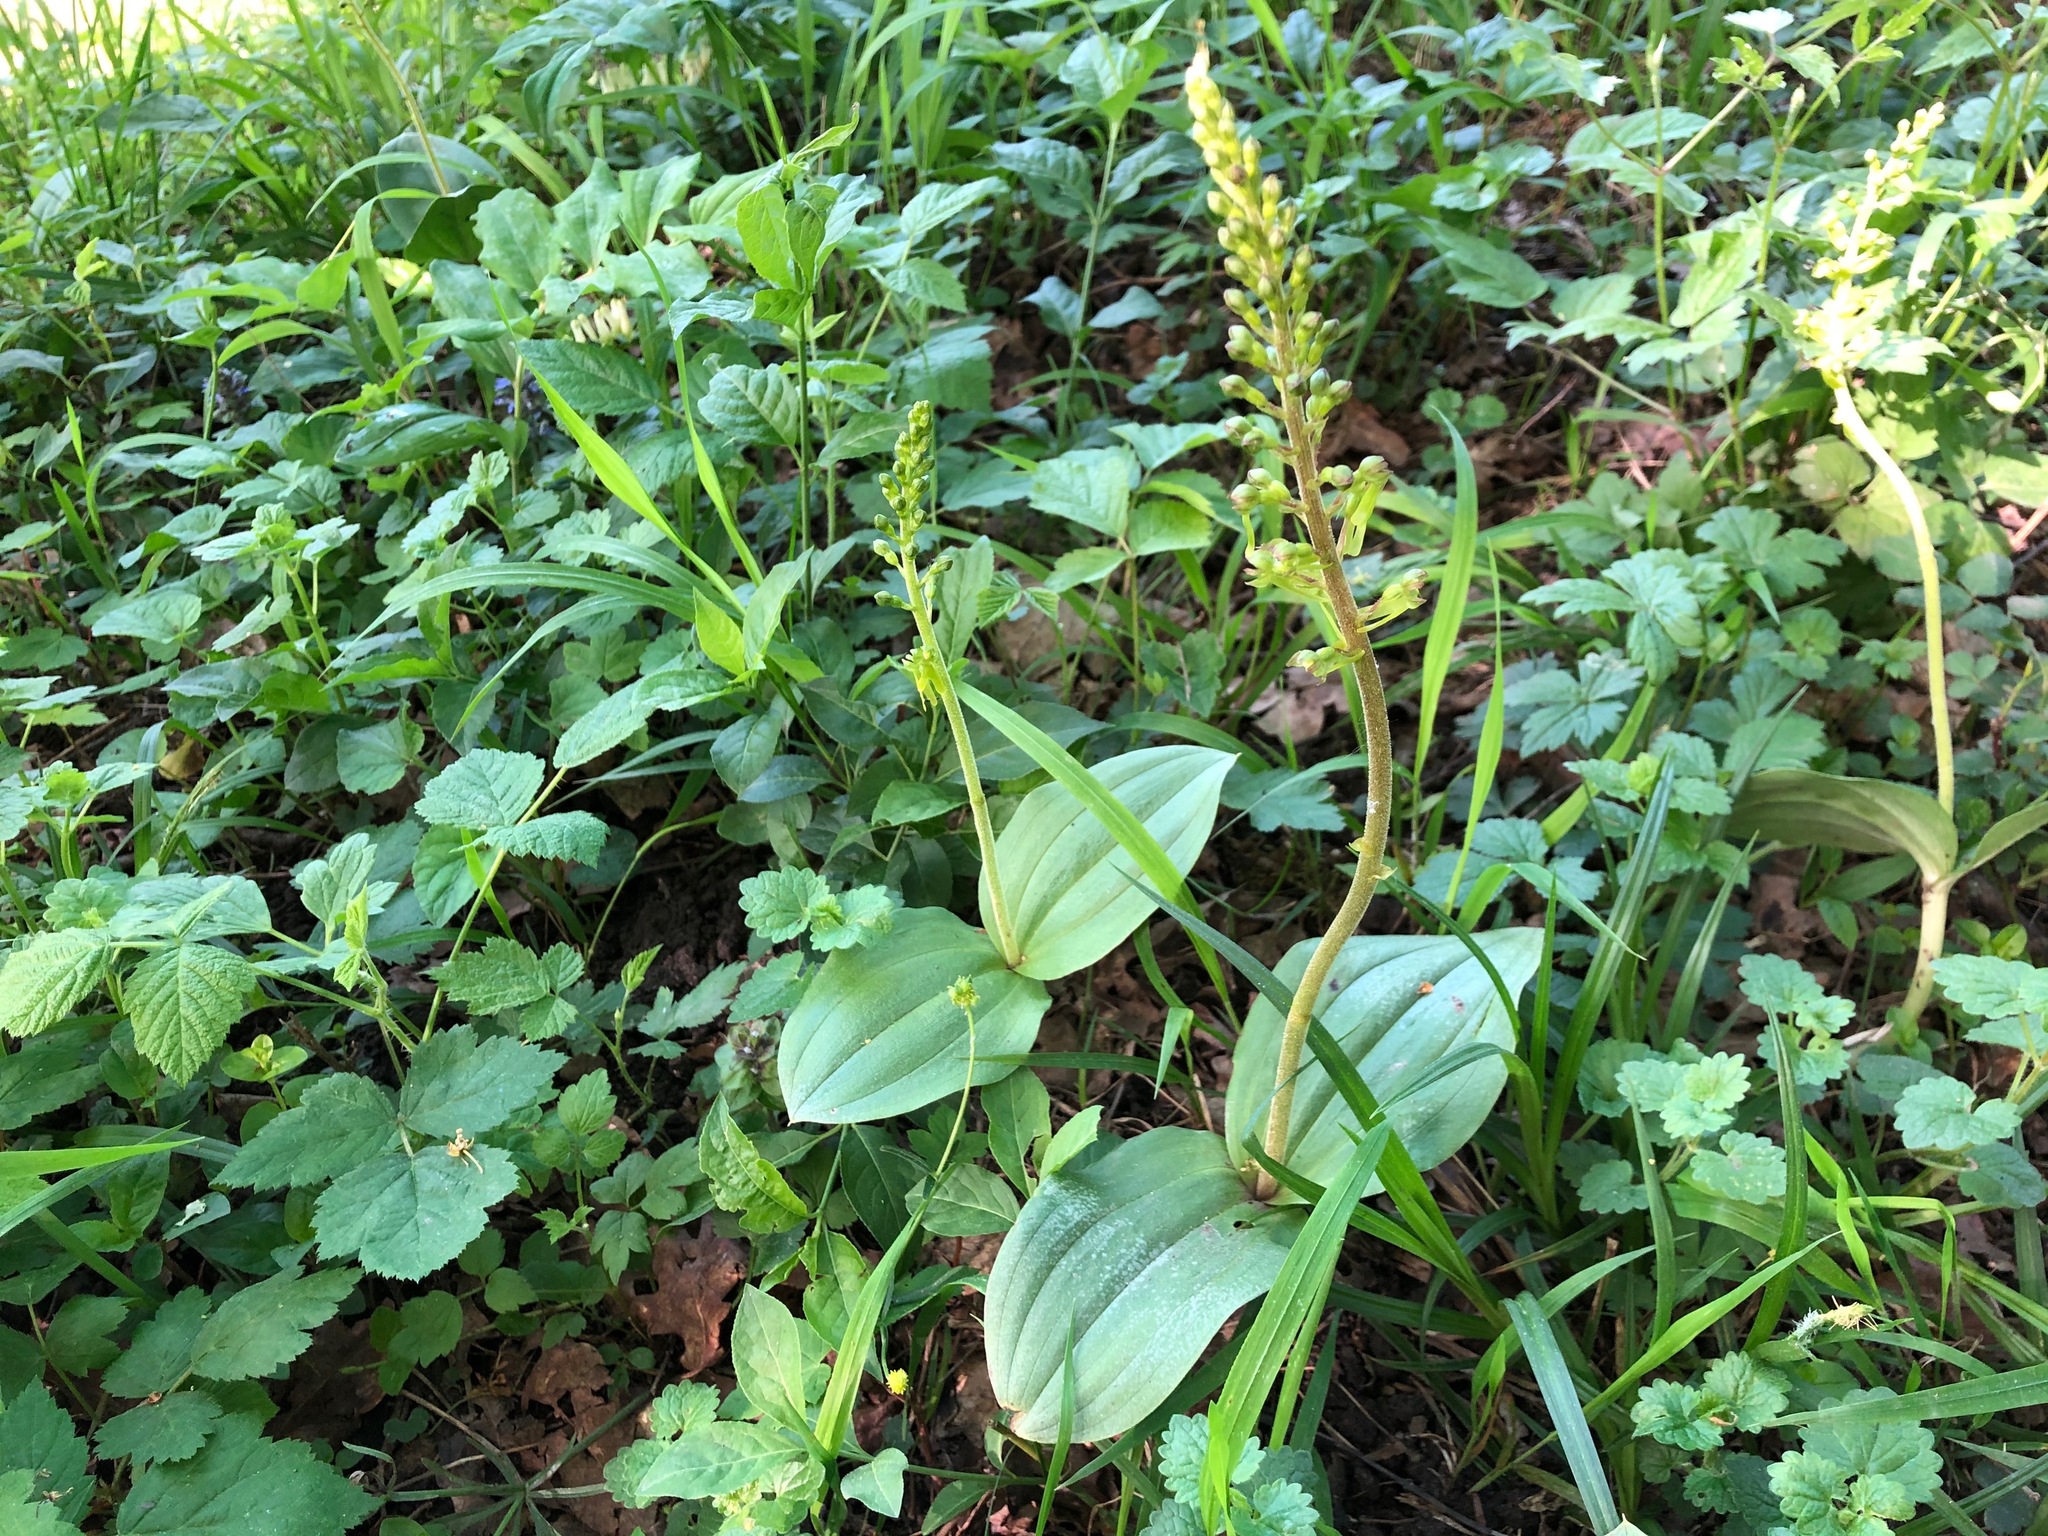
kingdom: Plantae
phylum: Tracheophyta
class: Liliopsida
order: Asparagales
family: Orchidaceae
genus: Neottia
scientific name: Neottia ovata
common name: Common twayblade
